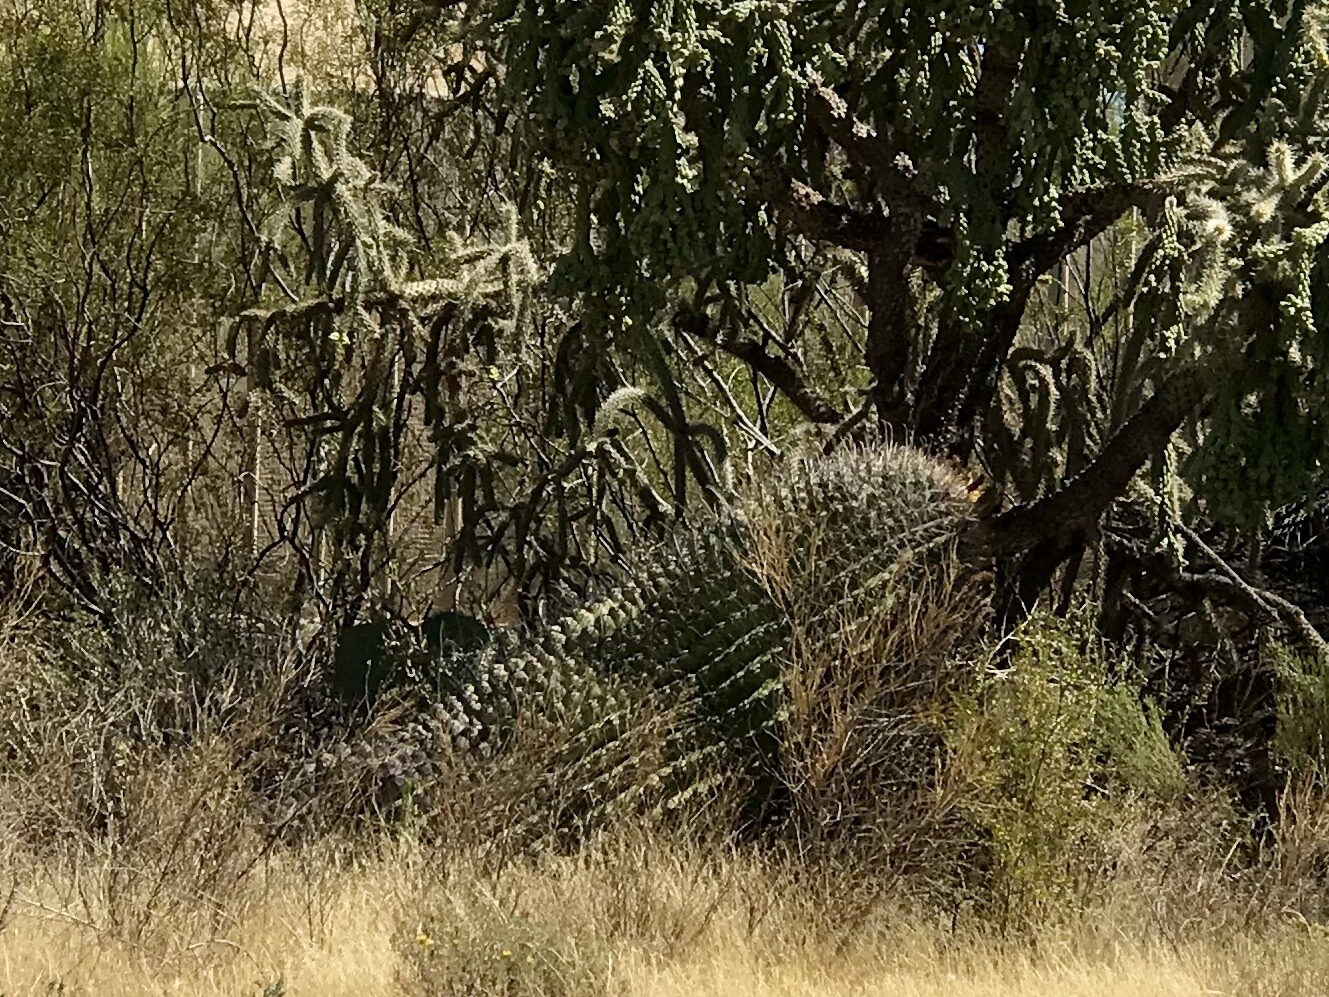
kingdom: Plantae
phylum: Tracheophyta
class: Magnoliopsida
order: Caryophyllales
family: Cactaceae
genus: Ferocactus
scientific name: Ferocactus wislizeni
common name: Candy barrel cactus
